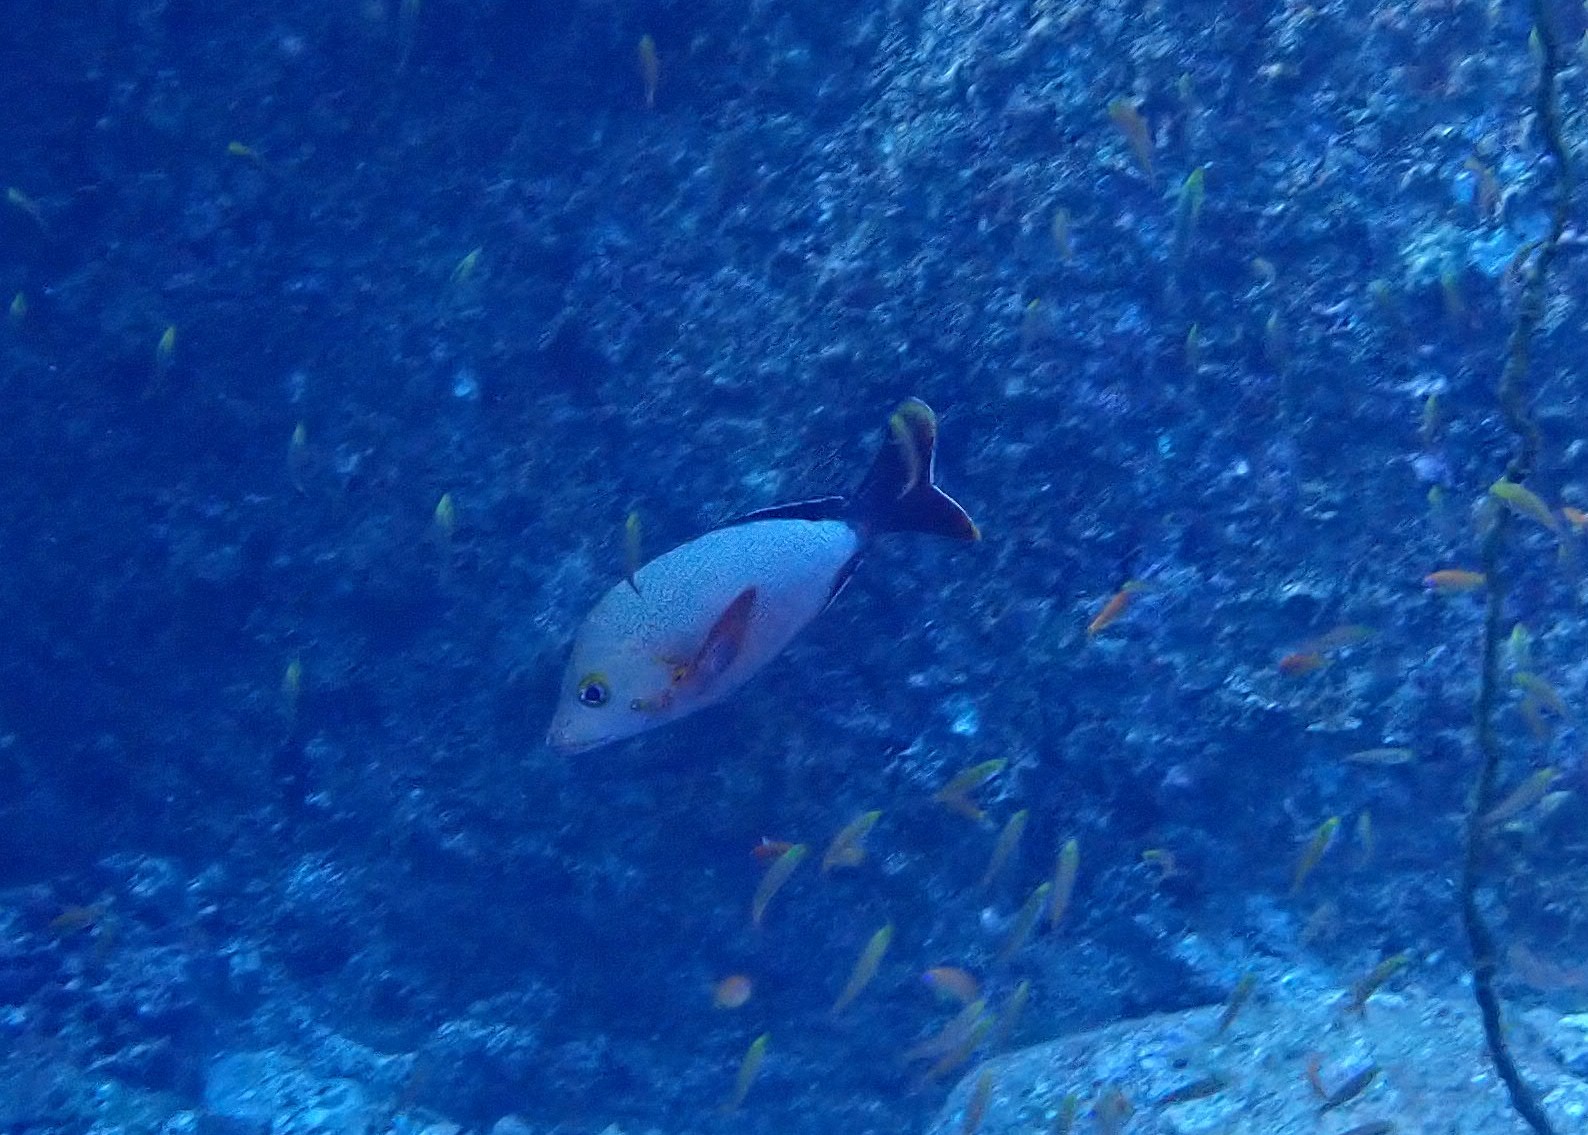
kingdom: Animalia
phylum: Chordata
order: Perciformes
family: Lutjanidae
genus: Lutjanus
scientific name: Lutjanus gibbus
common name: Humpback snapper
